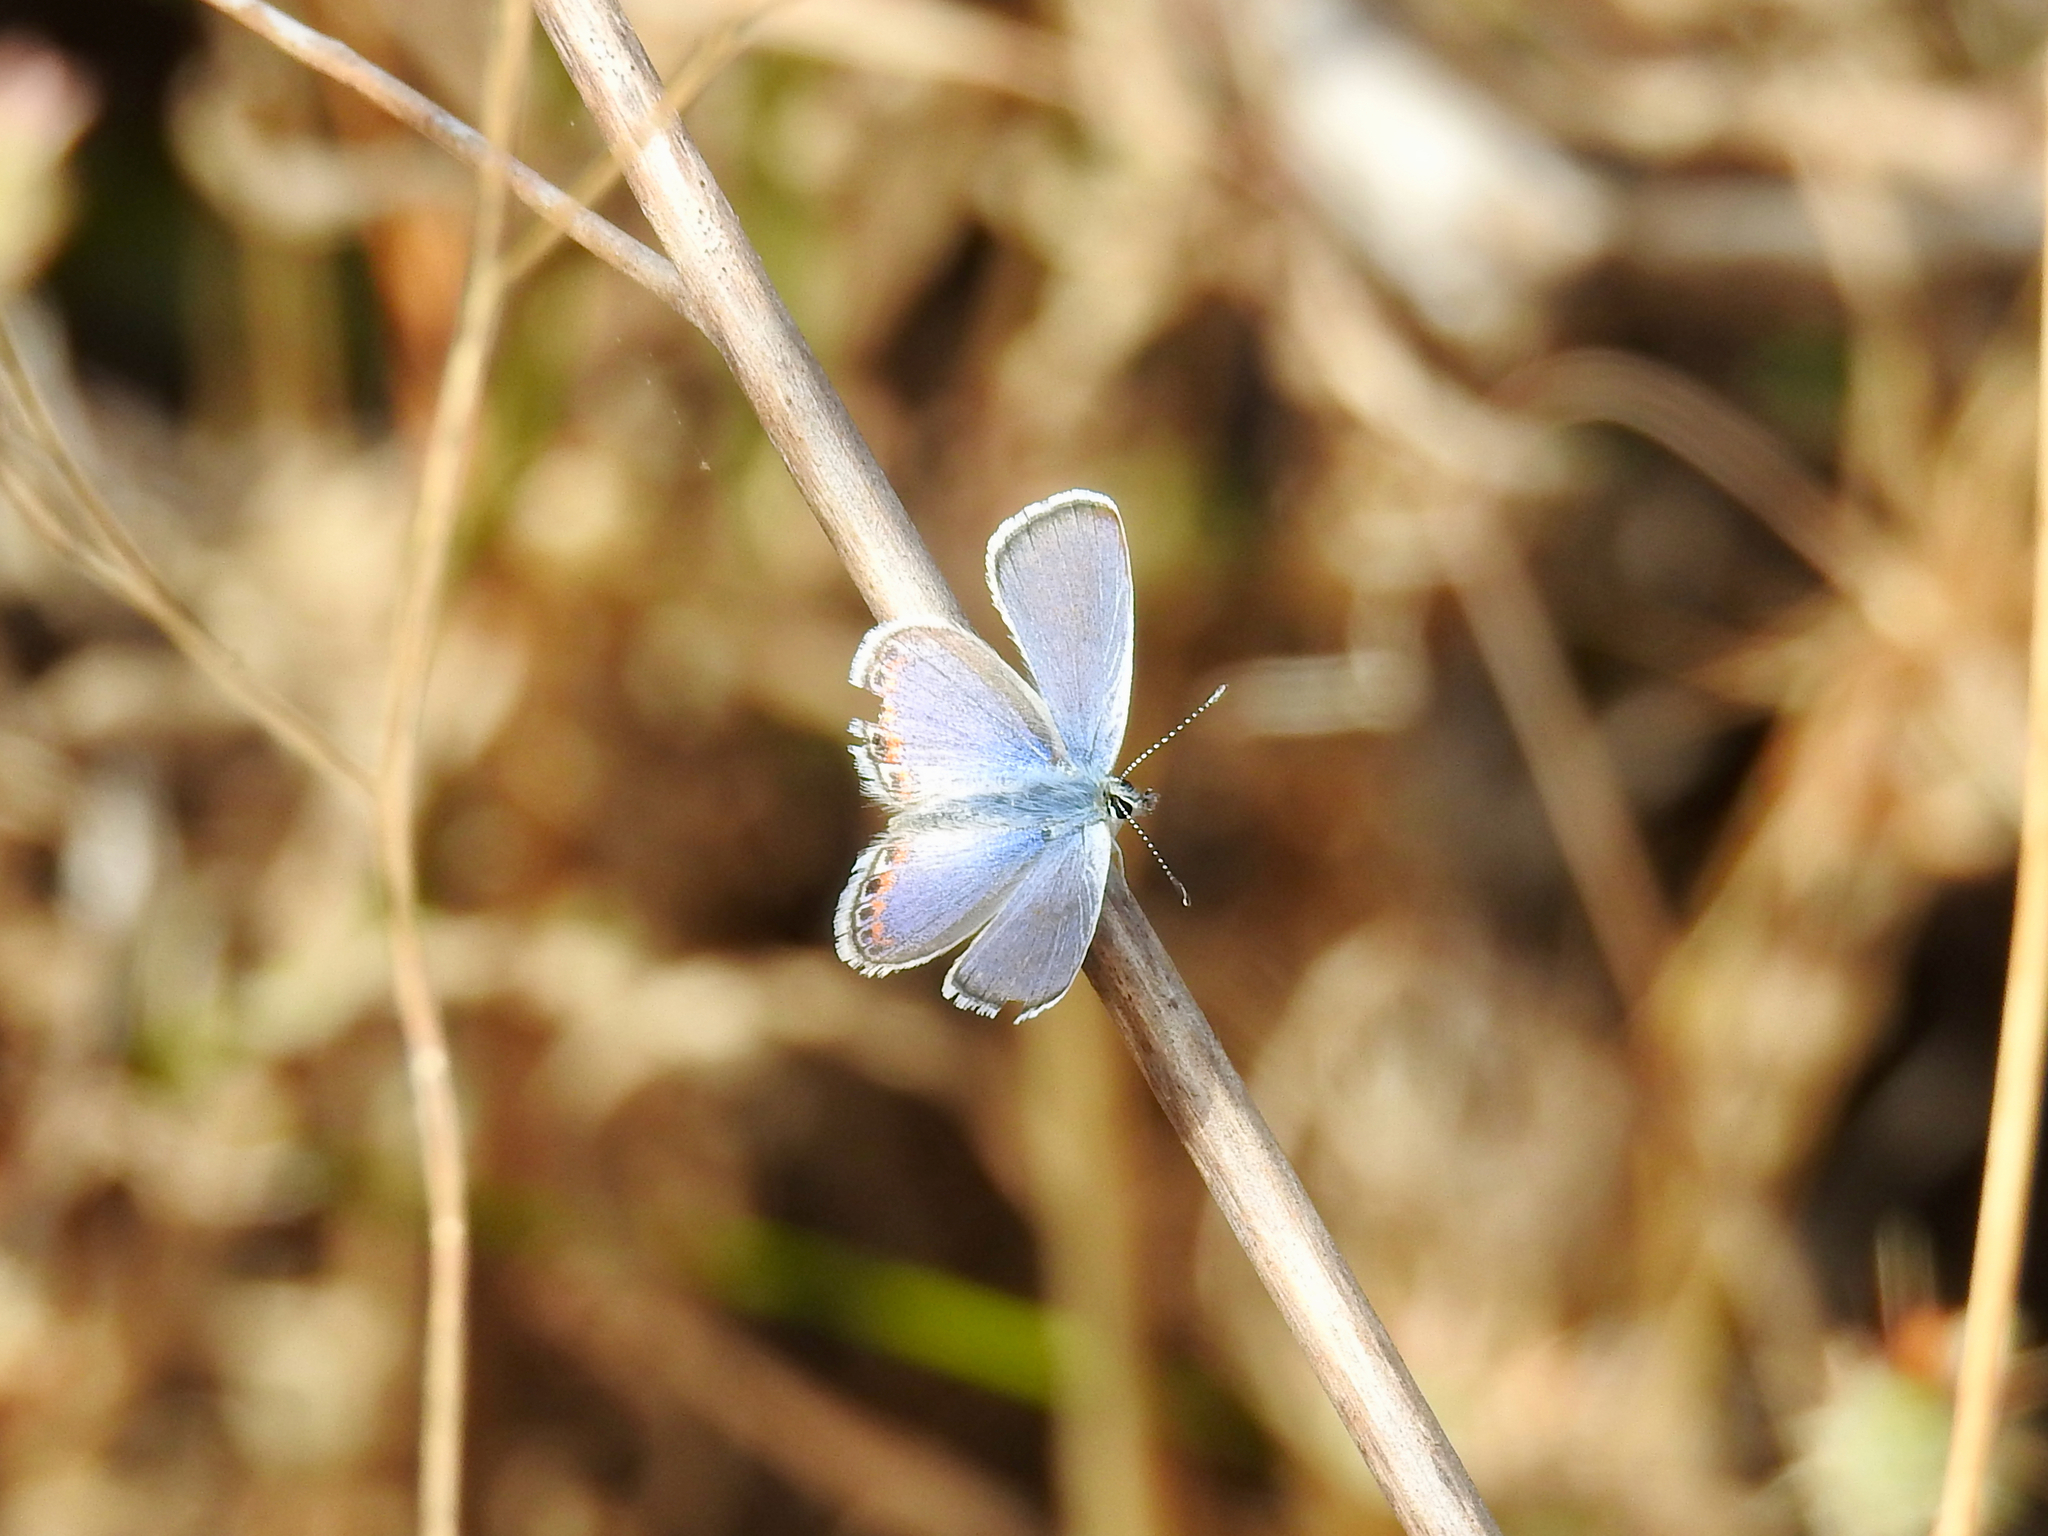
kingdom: Animalia
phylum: Arthropoda
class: Insecta
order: Lepidoptera
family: Lycaenidae
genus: Icaricia
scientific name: Icaricia acmon
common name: Acmon blue
